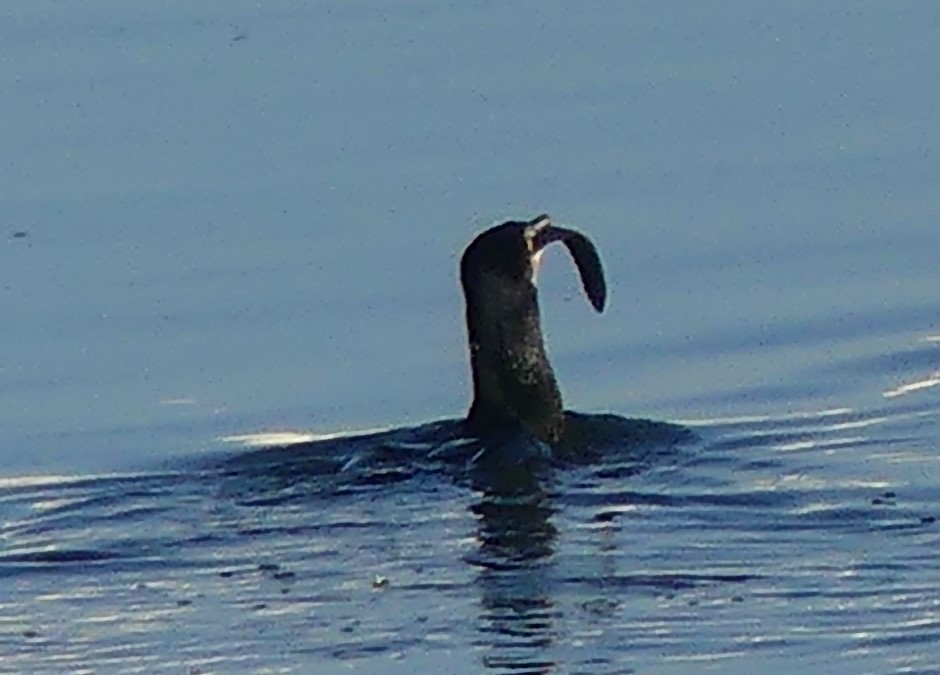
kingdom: Animalia
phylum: Chordata
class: Aves
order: Suliformes
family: Phalacrocoracidae
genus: Phalacrocorax
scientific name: Phalacrocorax carbo
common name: Great cormorant
